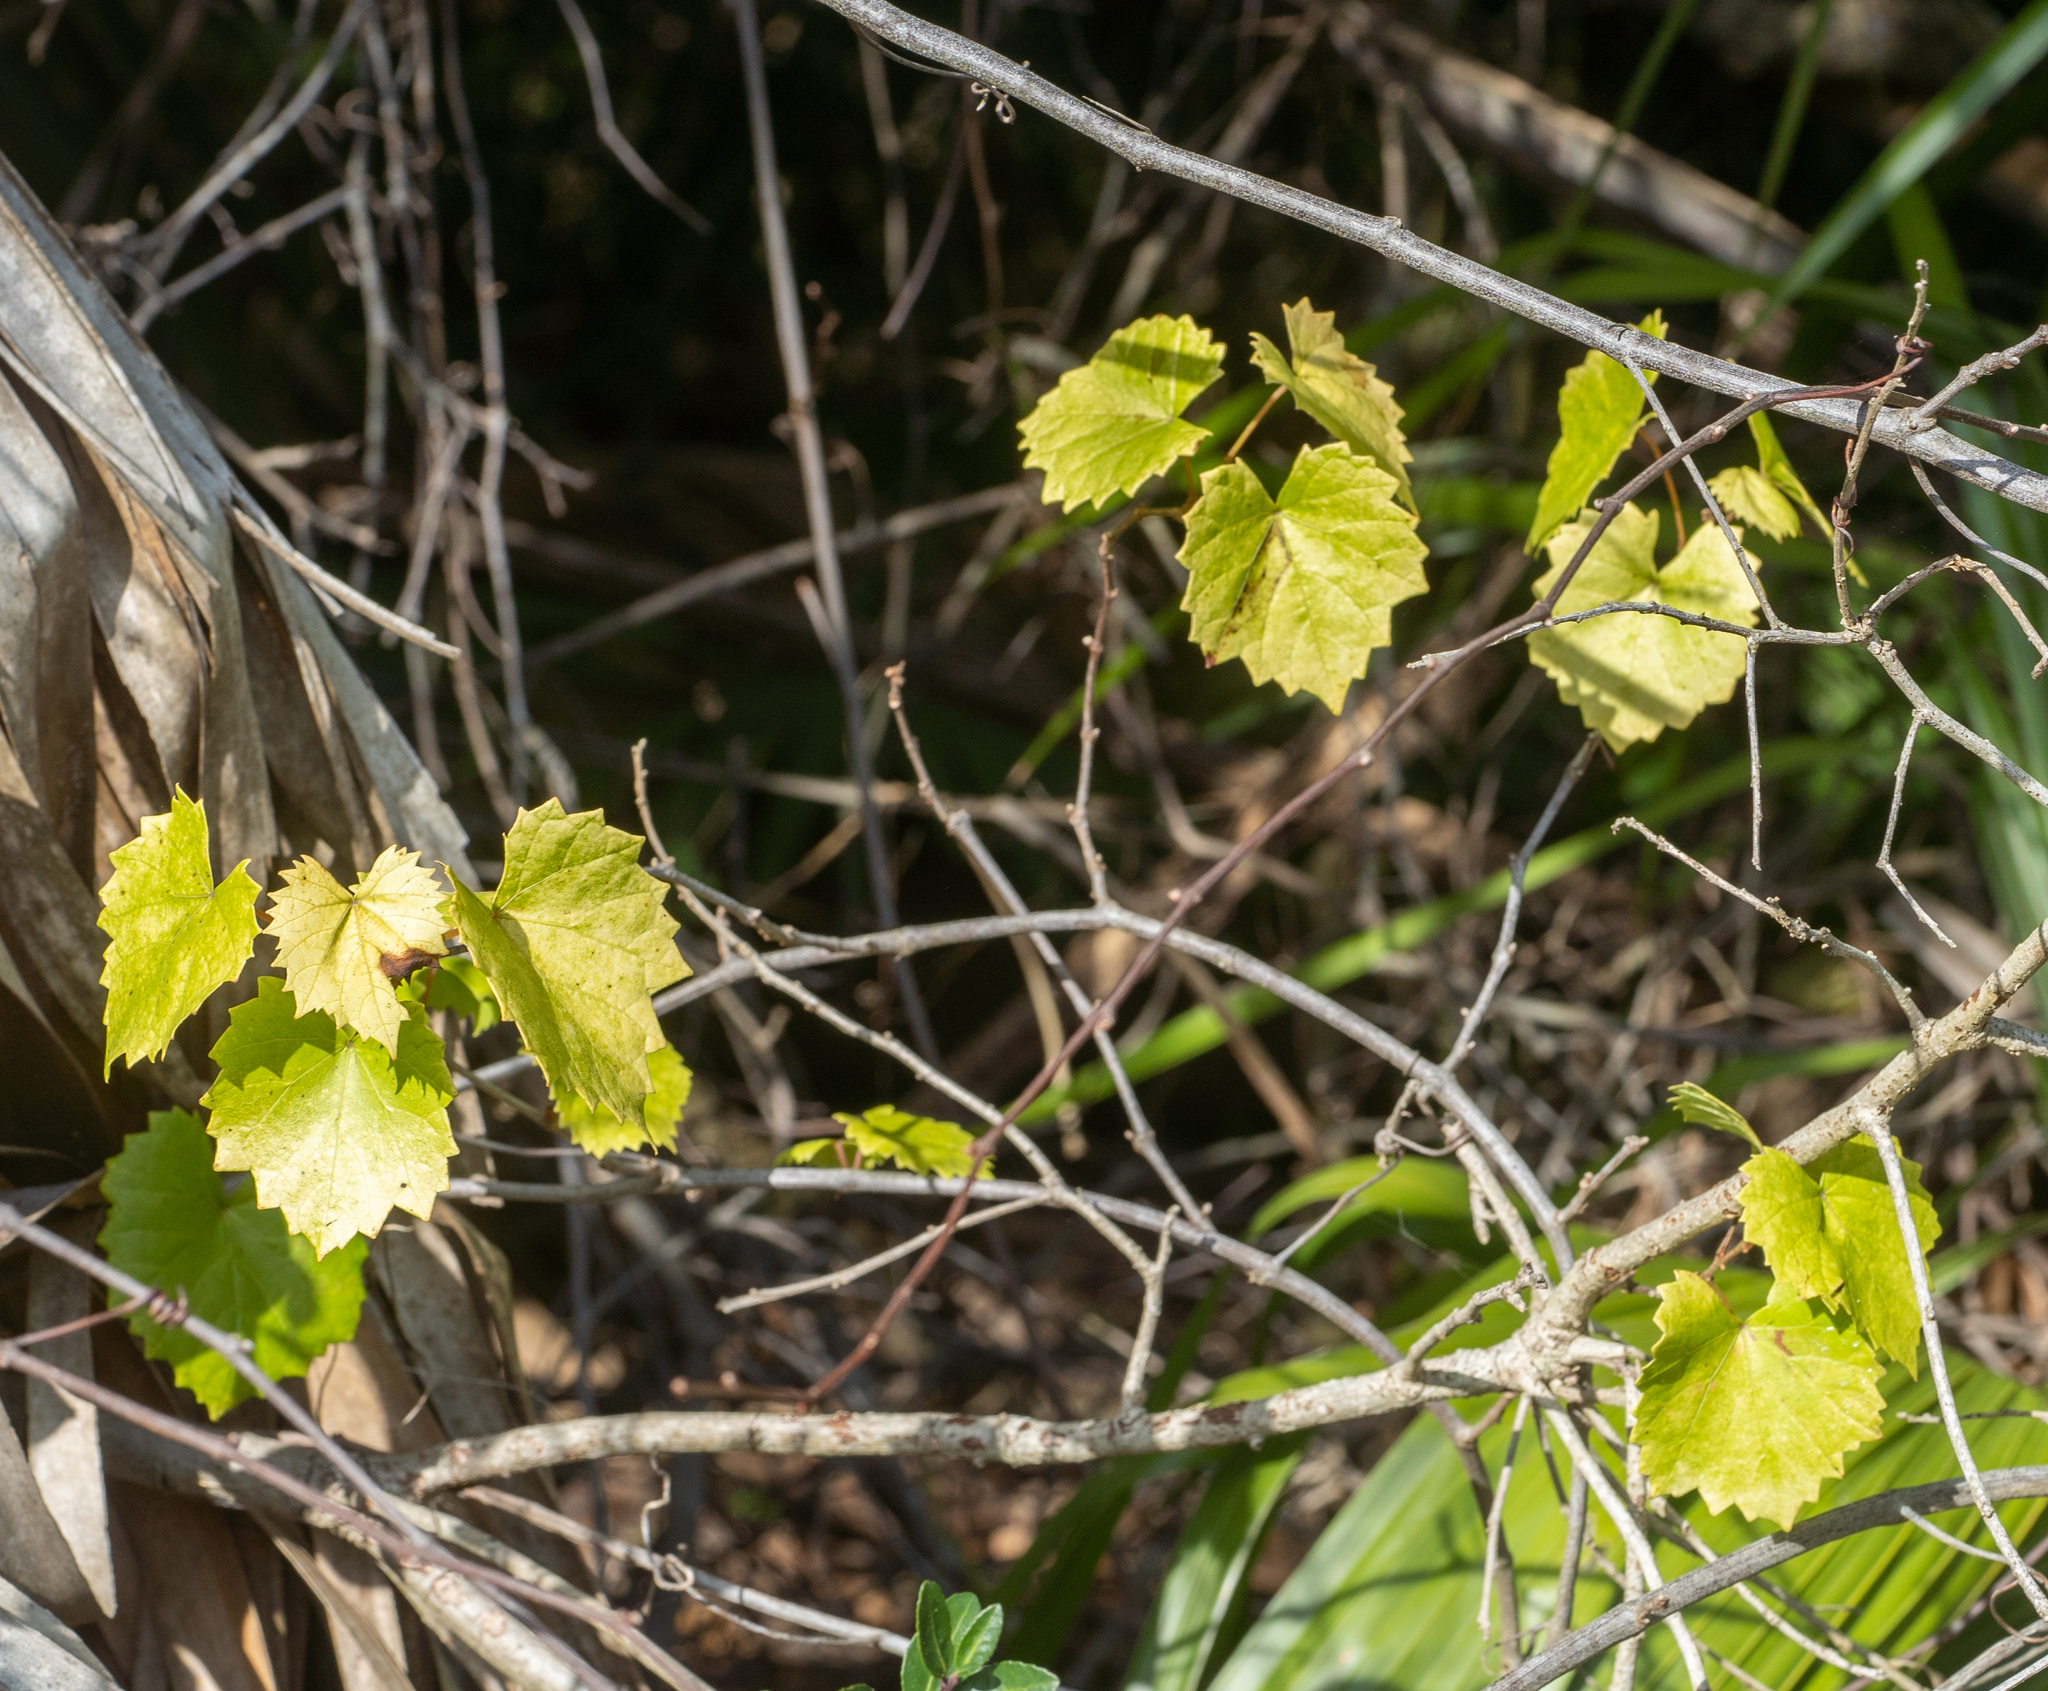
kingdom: Plantae
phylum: Tracheophyta
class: Magnoliopsida
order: Vitales
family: Vitaceae
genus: Vitis
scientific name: Vitis rotundifolia
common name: Muscadine grape
